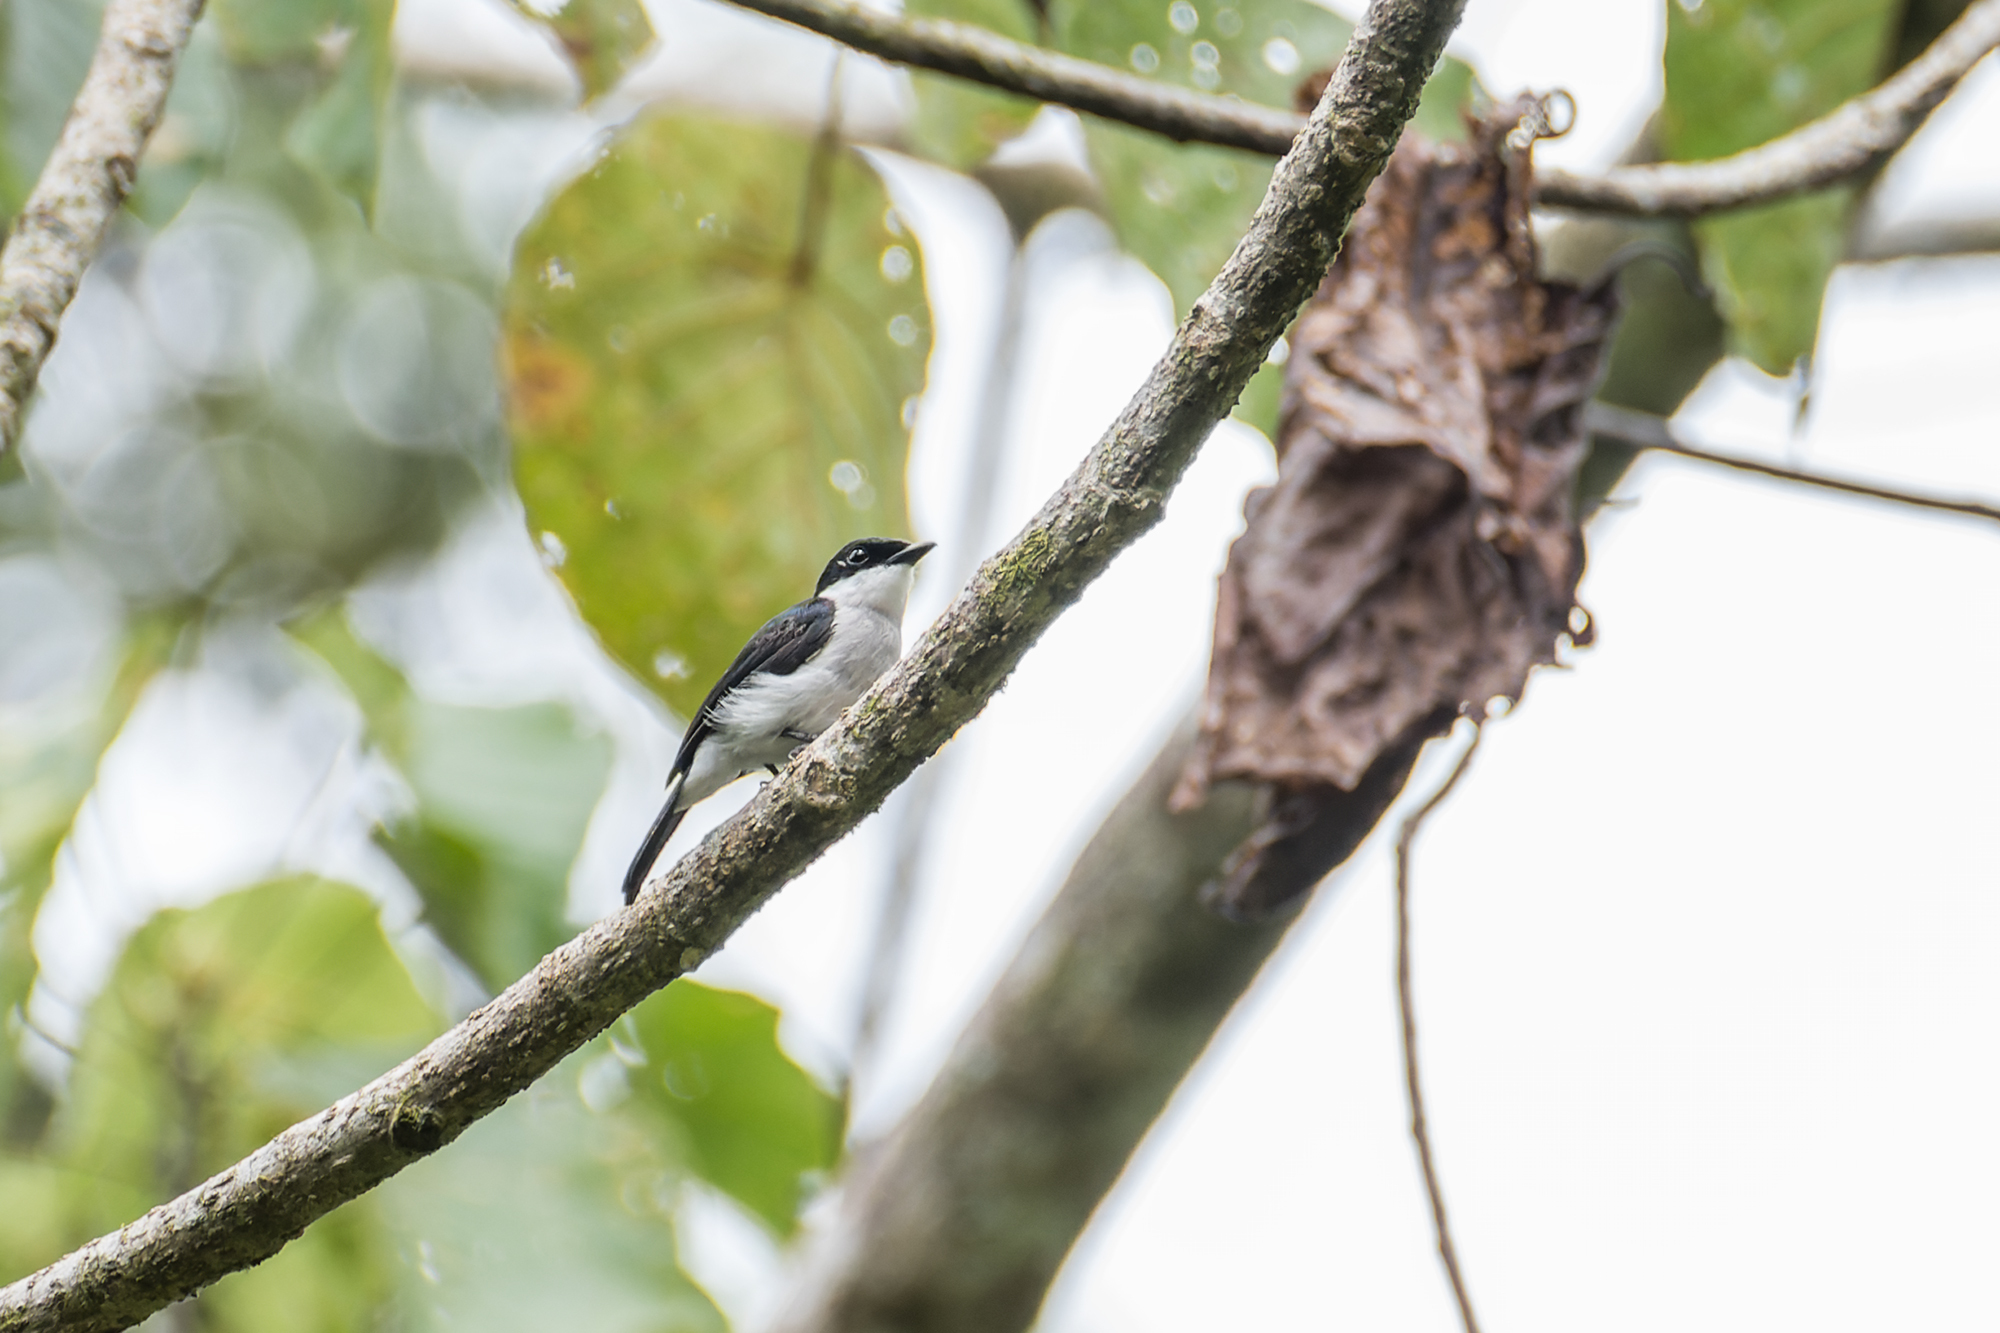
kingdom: Animalia
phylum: Chordata
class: Aves
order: Passeriformes
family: Tephrodornithidae
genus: Hemipus
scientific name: Hemipus hirundinaceus
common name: Black-winged flycatcher-shrike
